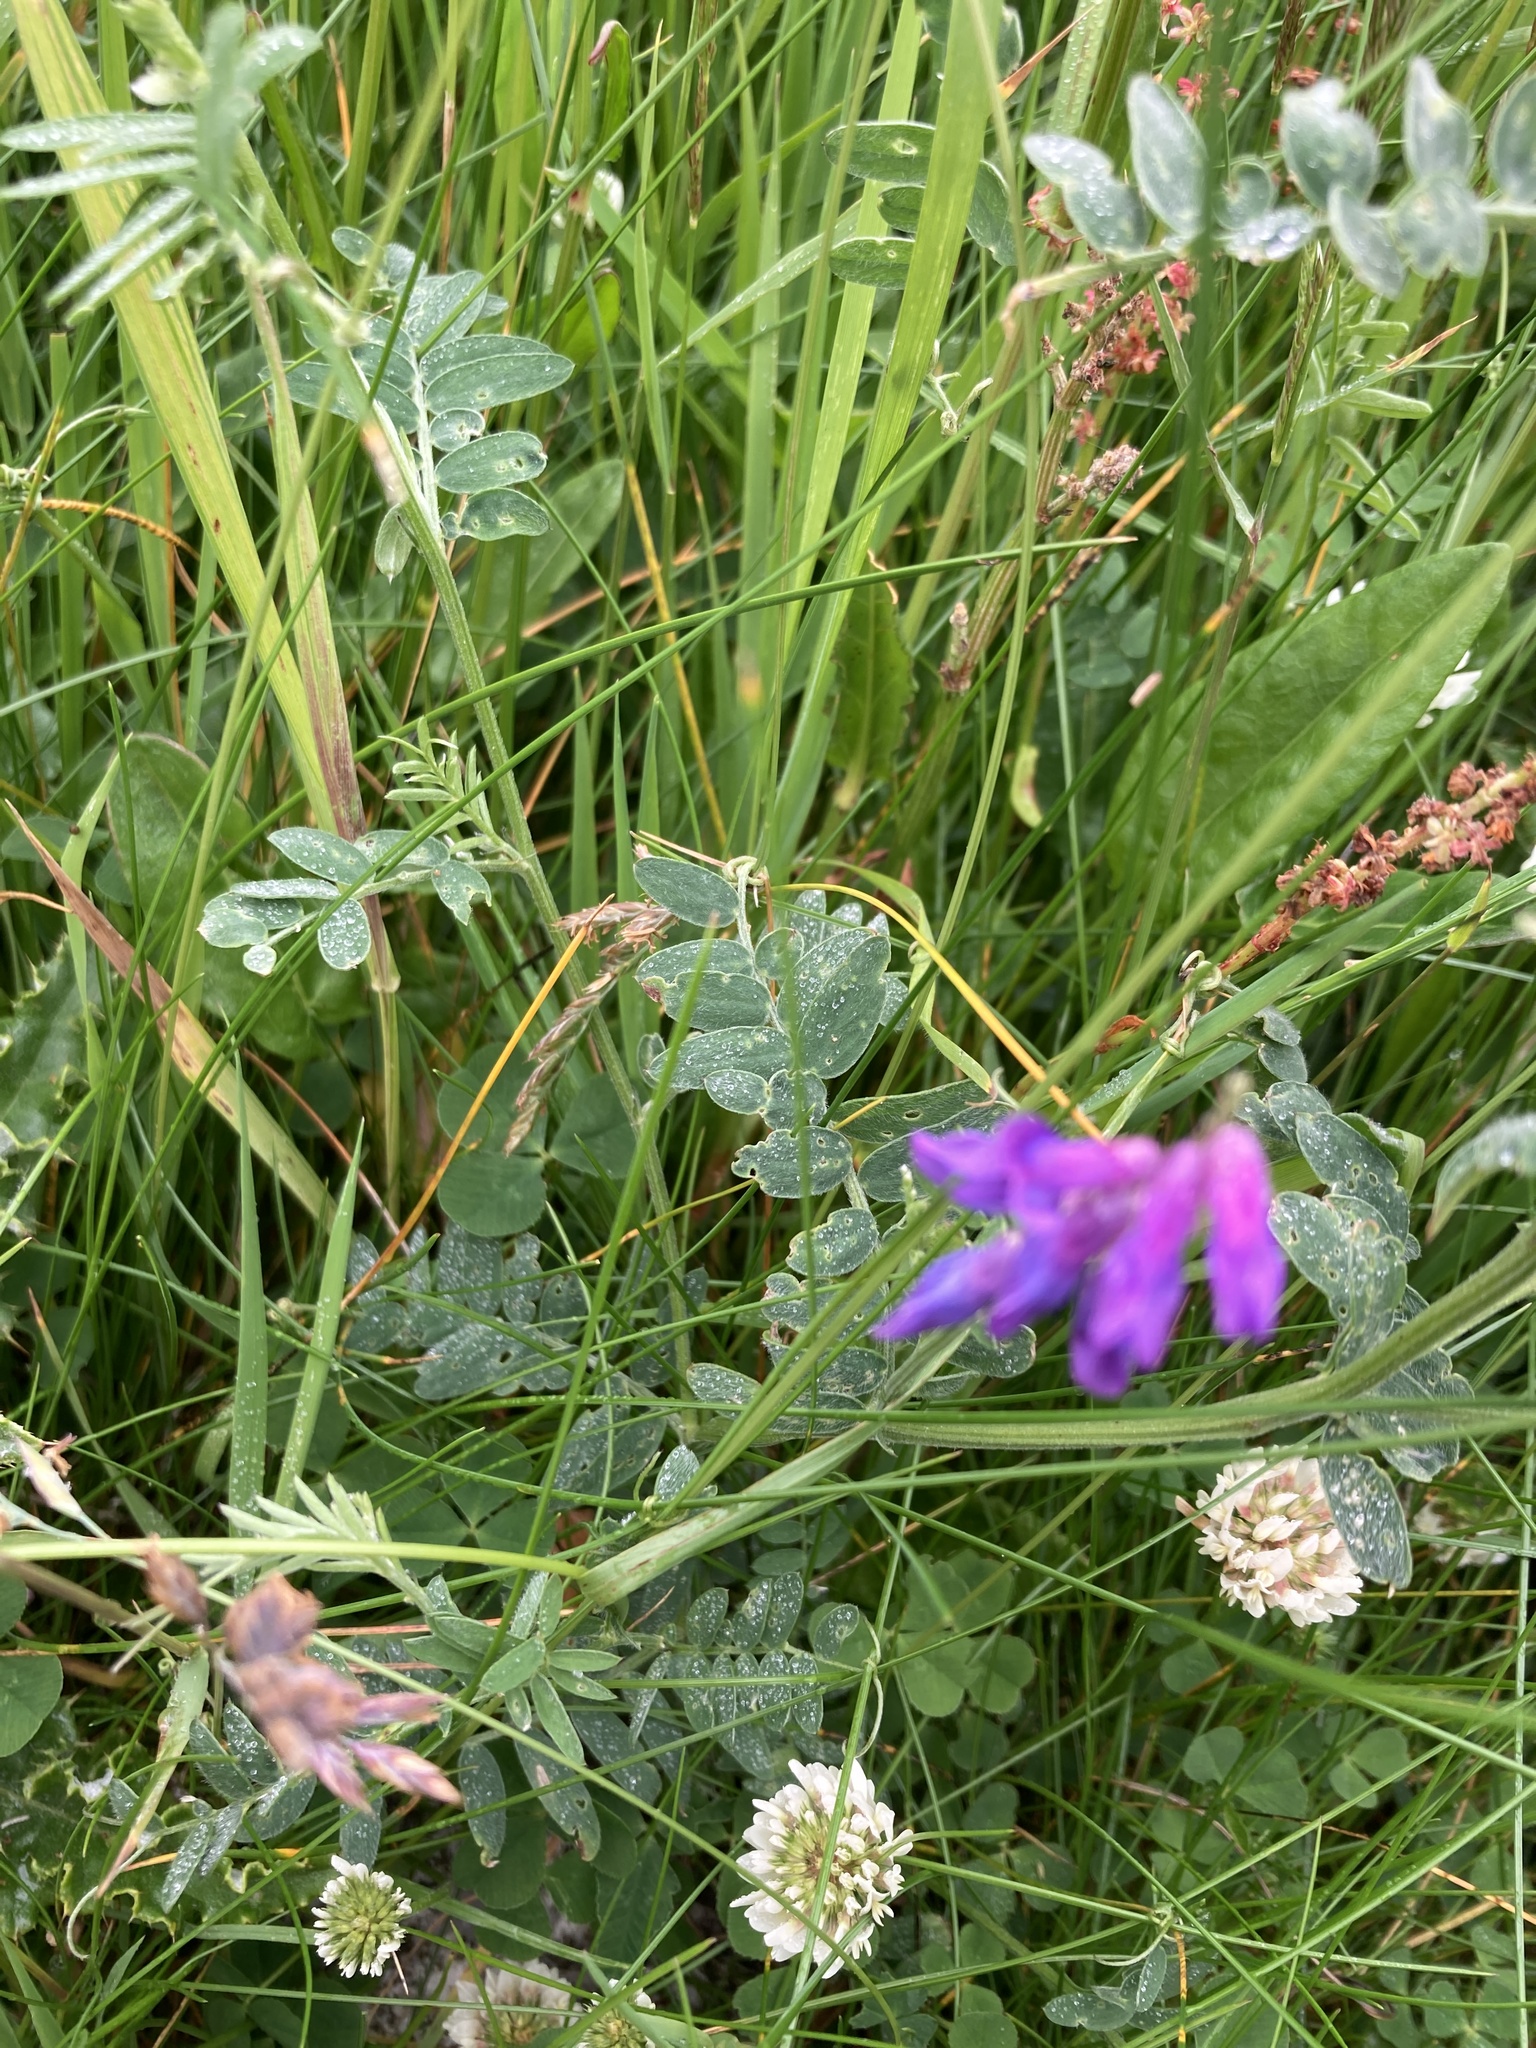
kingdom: Plantae
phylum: Tracheophyta
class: Magnoliopsida
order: Fabales
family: Fabaceae
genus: Vicia
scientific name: Vicia cracca
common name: Bird vetch
